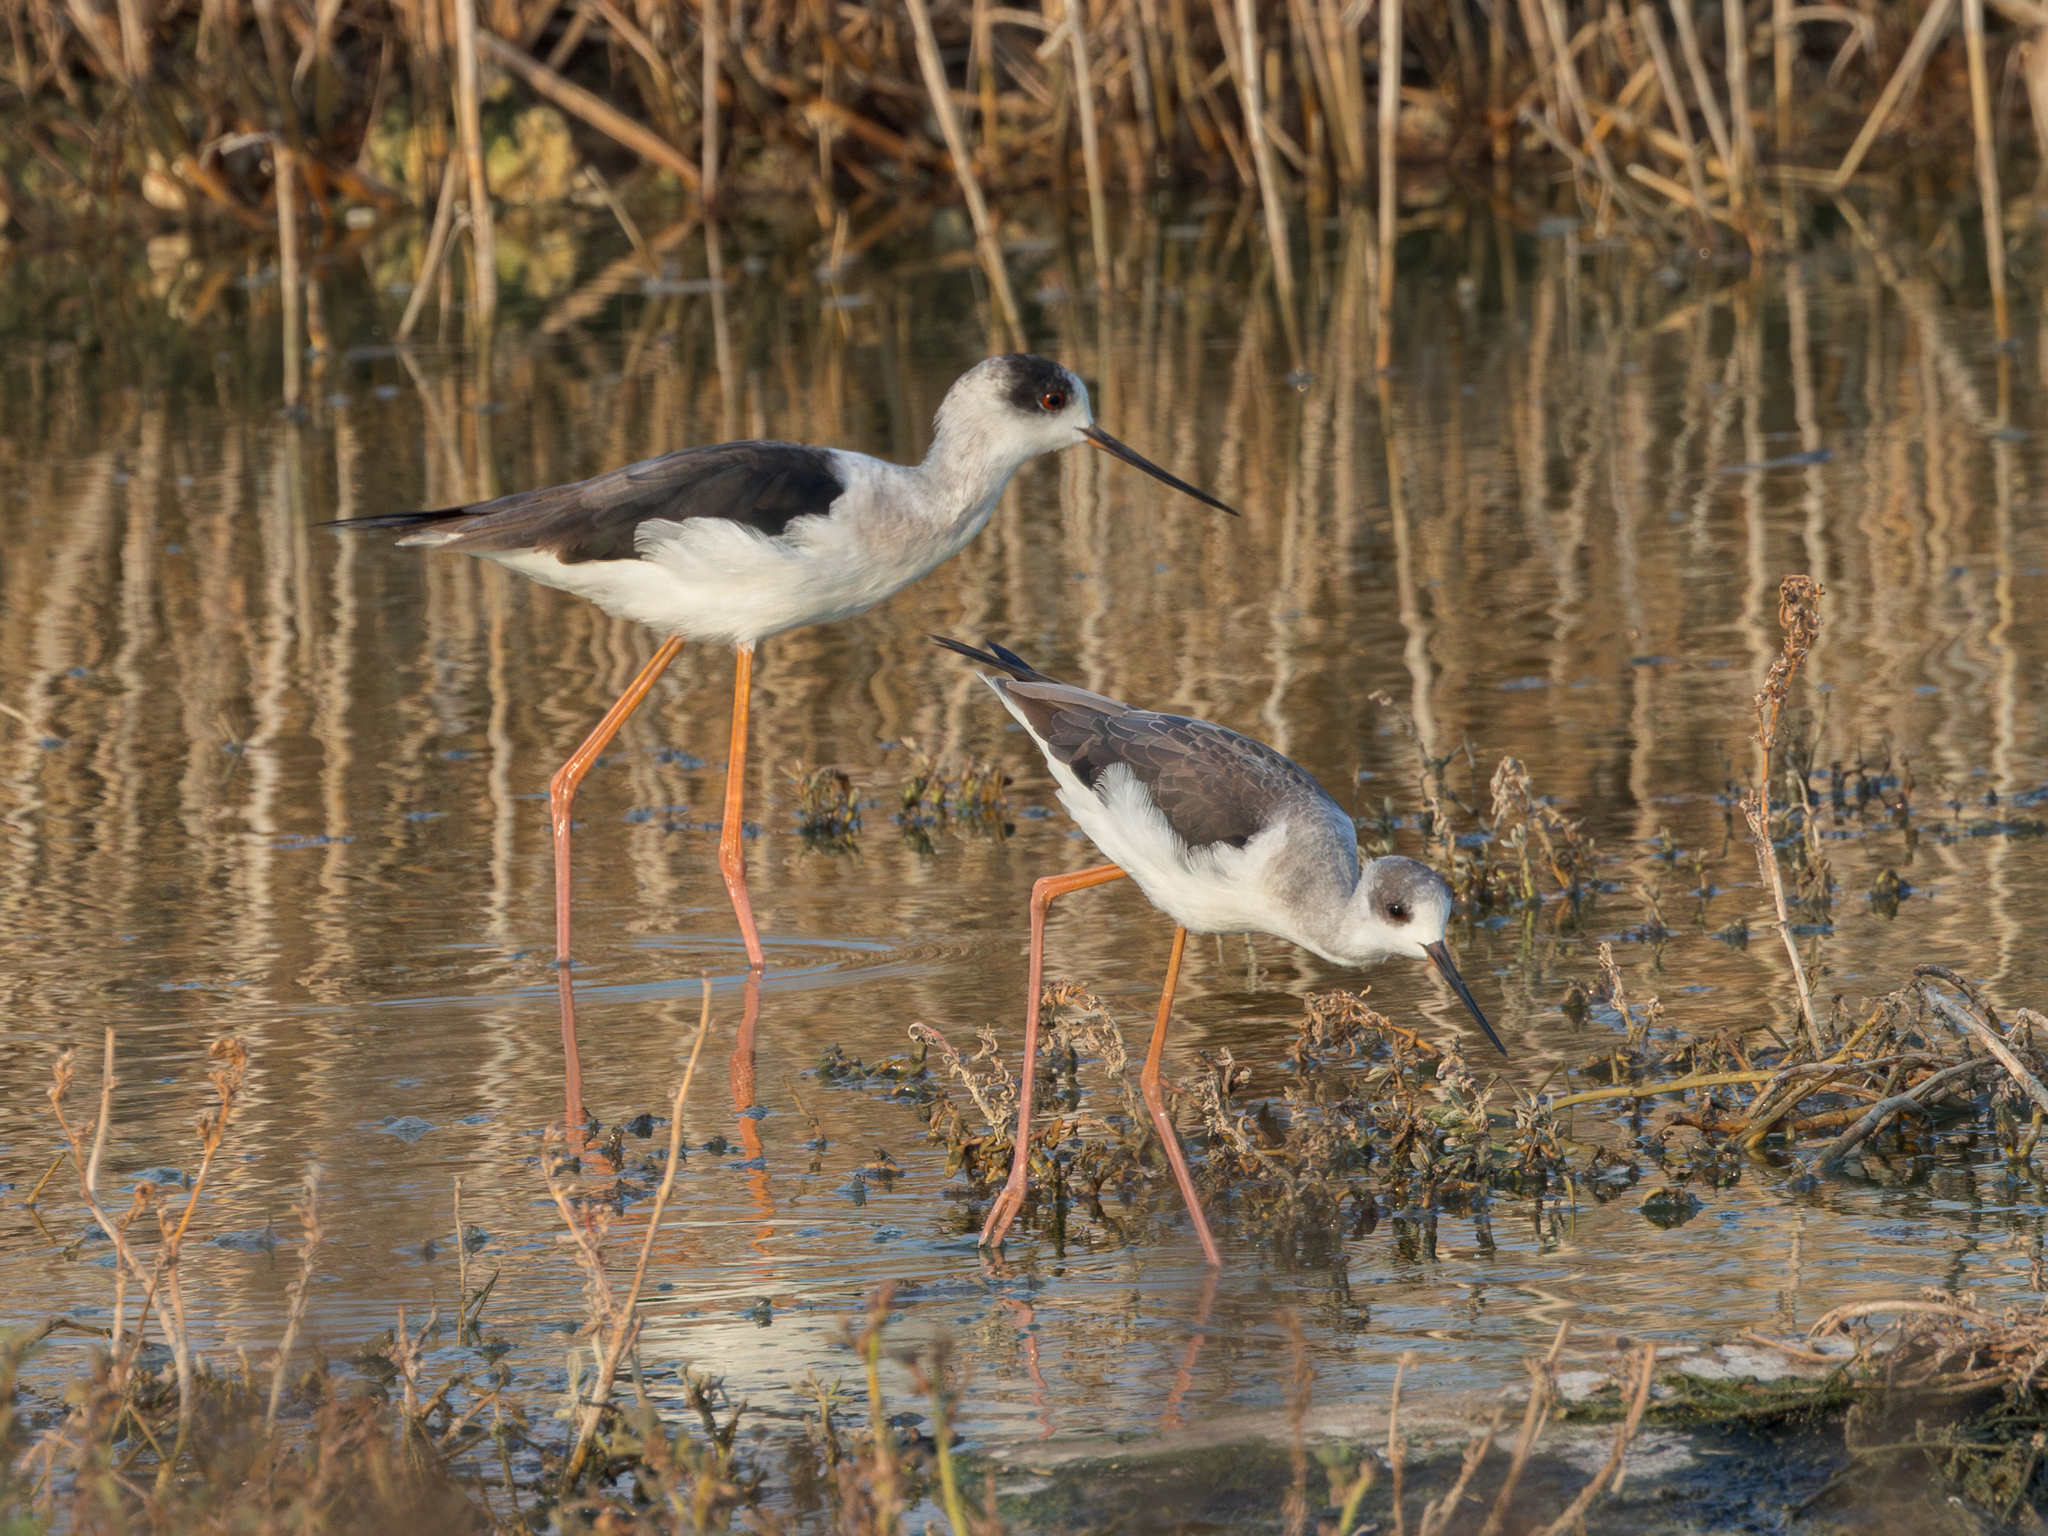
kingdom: Animalia
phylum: Chordata
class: Aves
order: Charadriiformes
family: Recurvirostridae
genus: Himantopus
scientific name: Himantopus himantopus
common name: Black-winged stilt
